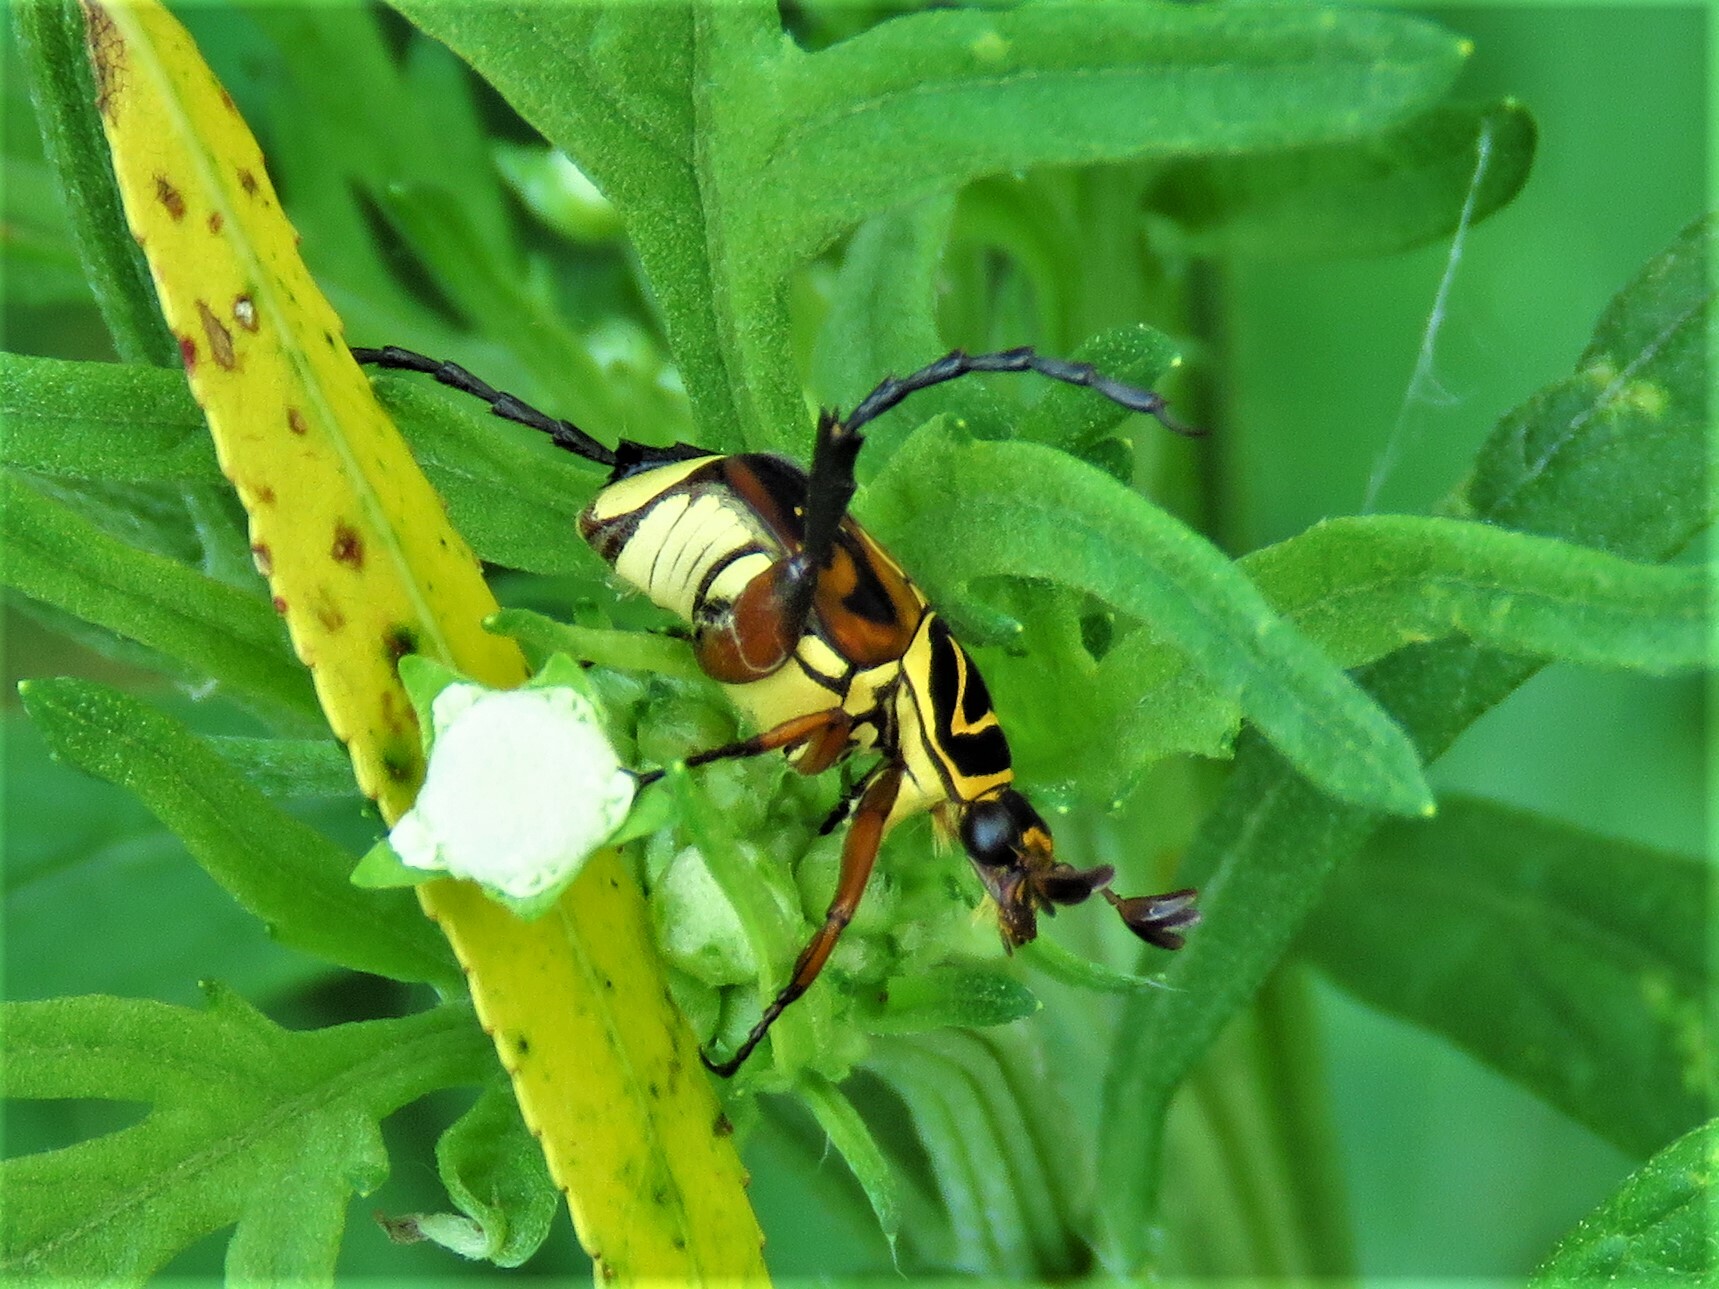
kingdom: Animalia
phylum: Arthropoda
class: Insecta
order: Coleoptera
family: Scarabaeidae
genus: Trigonopeltastes
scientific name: Trigonopeltastes delta
